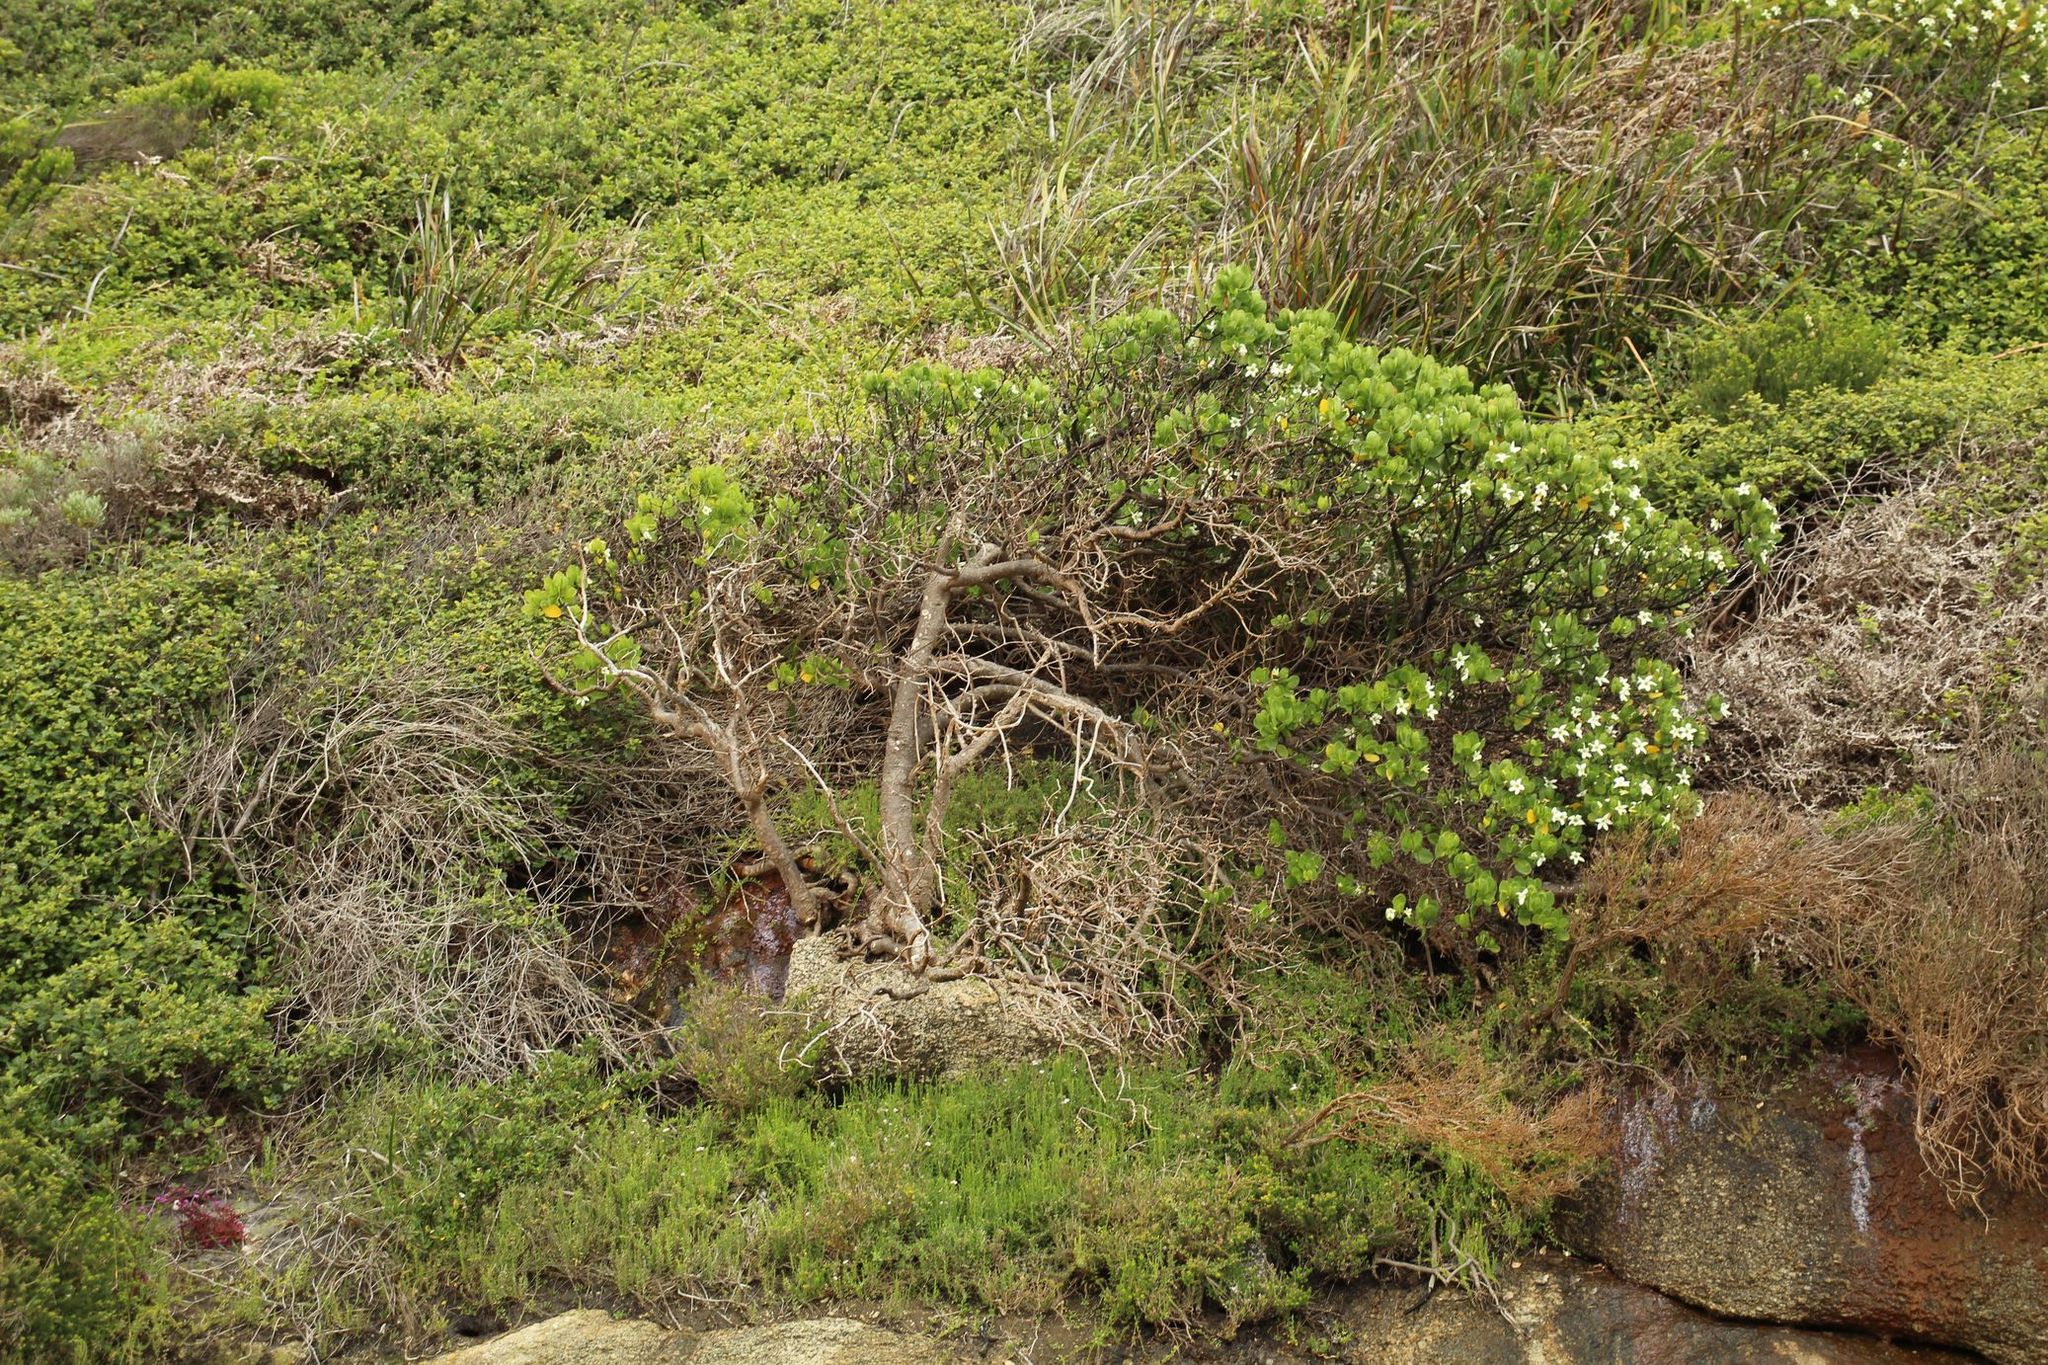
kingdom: Plantae
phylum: Tracheophyta
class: Magnoliopsida
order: Solanales
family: Solanaceae
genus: Anthocercis
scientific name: Anthocercis viscosa
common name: Sticky tailflower
